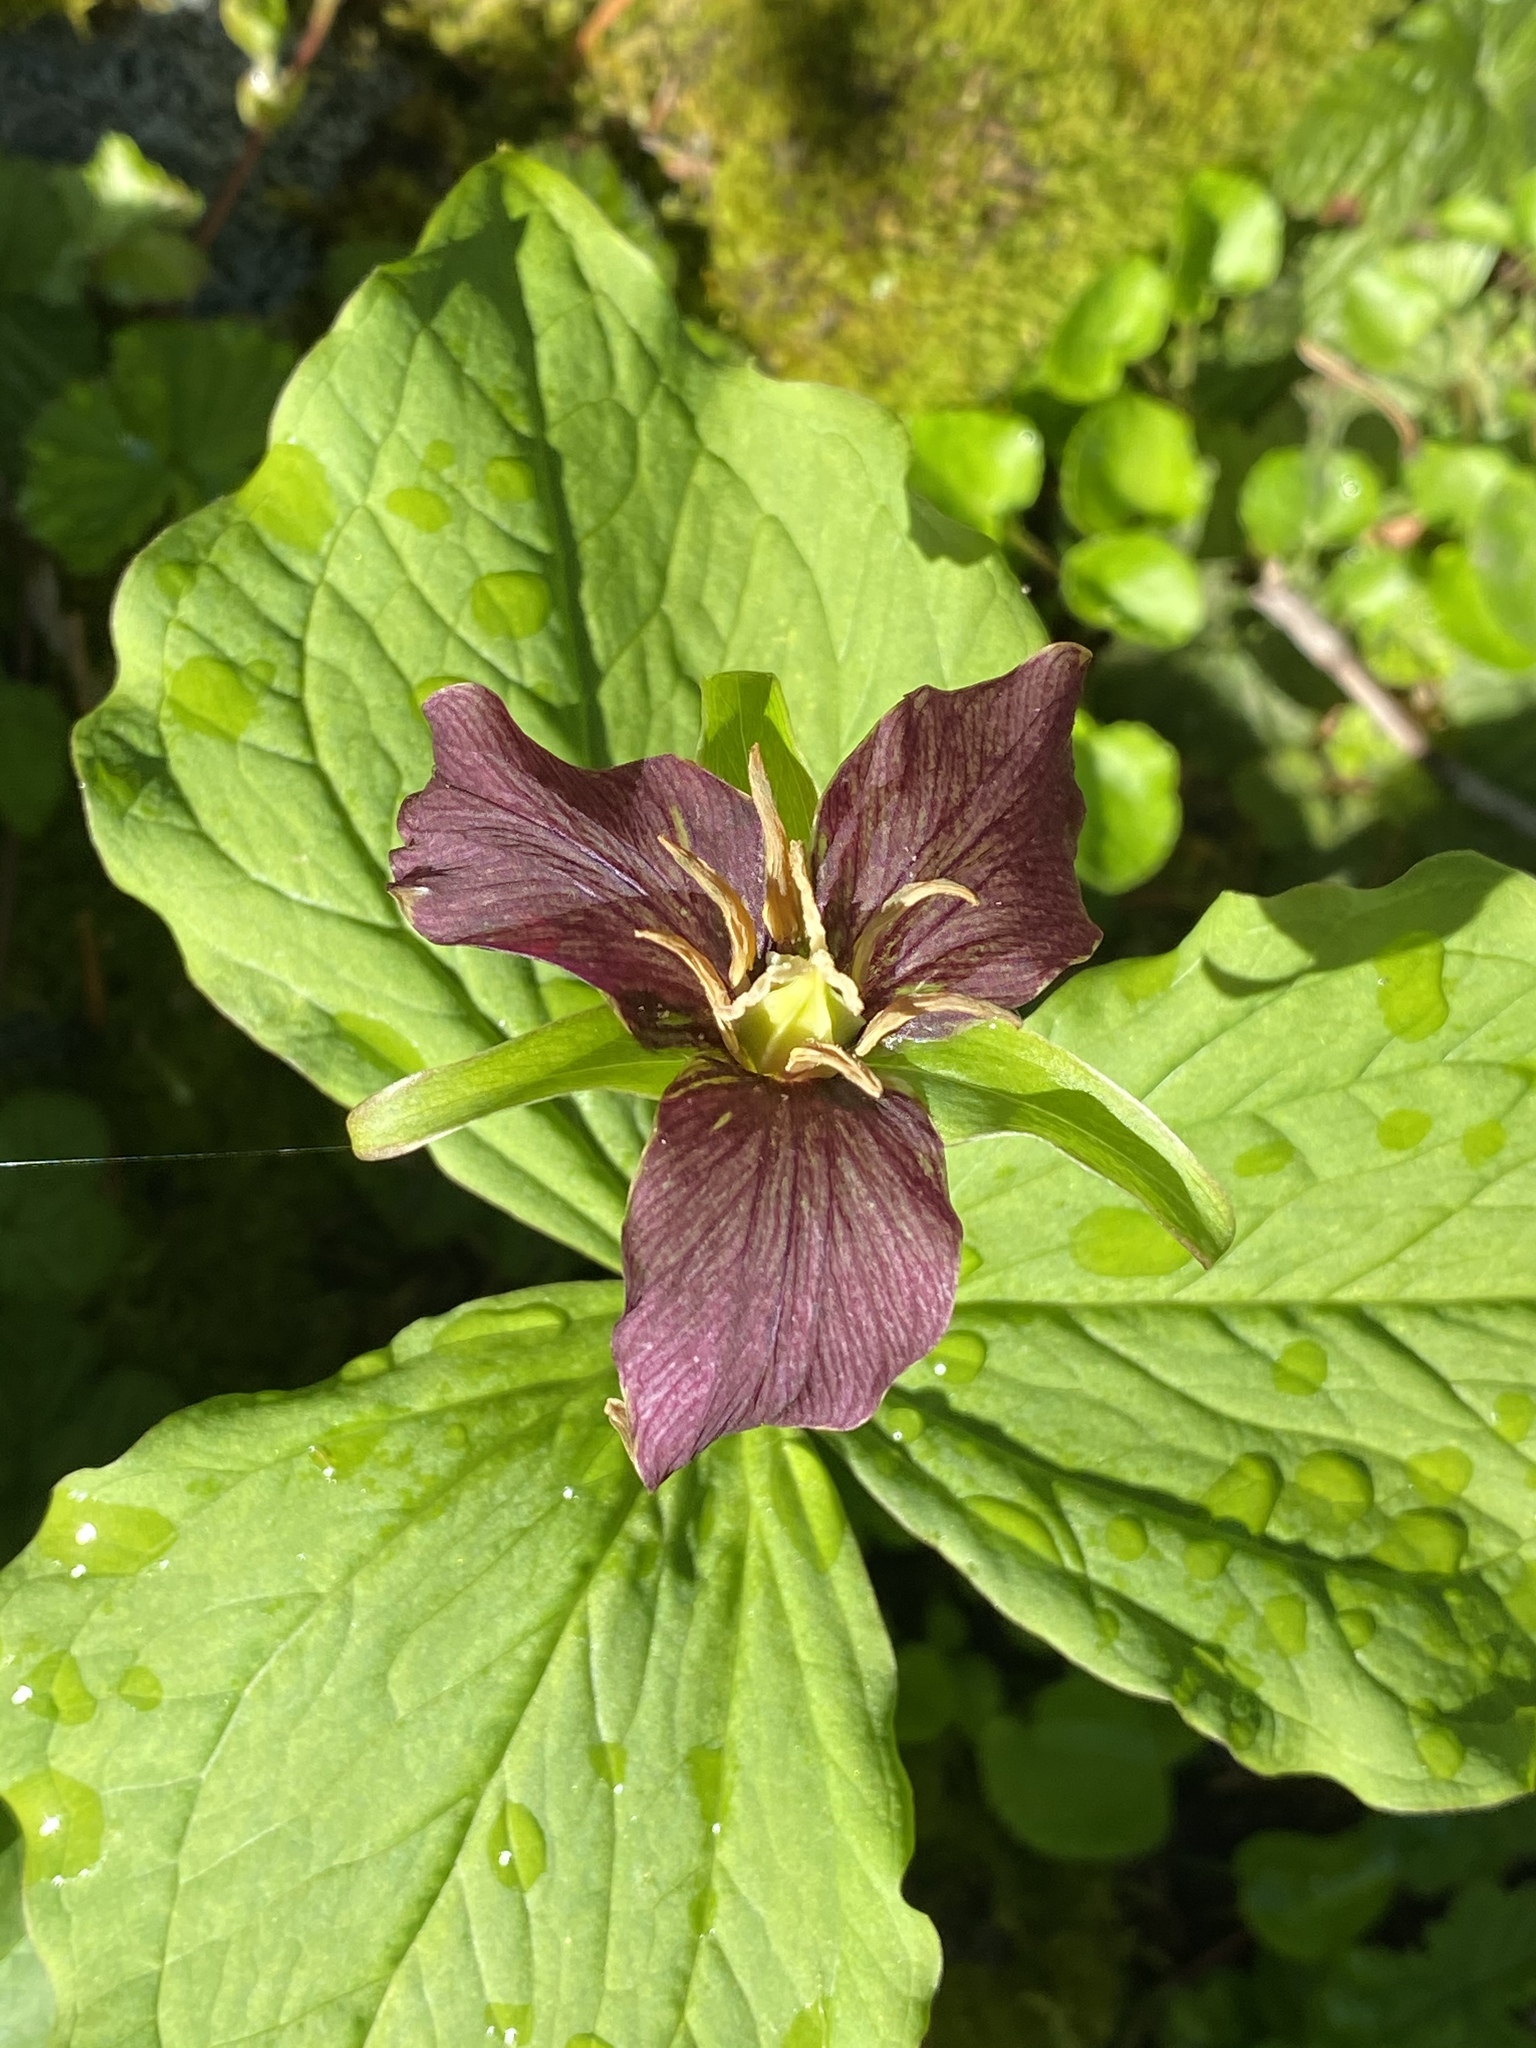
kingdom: Plantae
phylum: Tracheophyta
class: Liliopsida
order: Liliales
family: Melanthiaceae
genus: Trillium
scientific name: Trillium ovatum
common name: Pacific trillium
